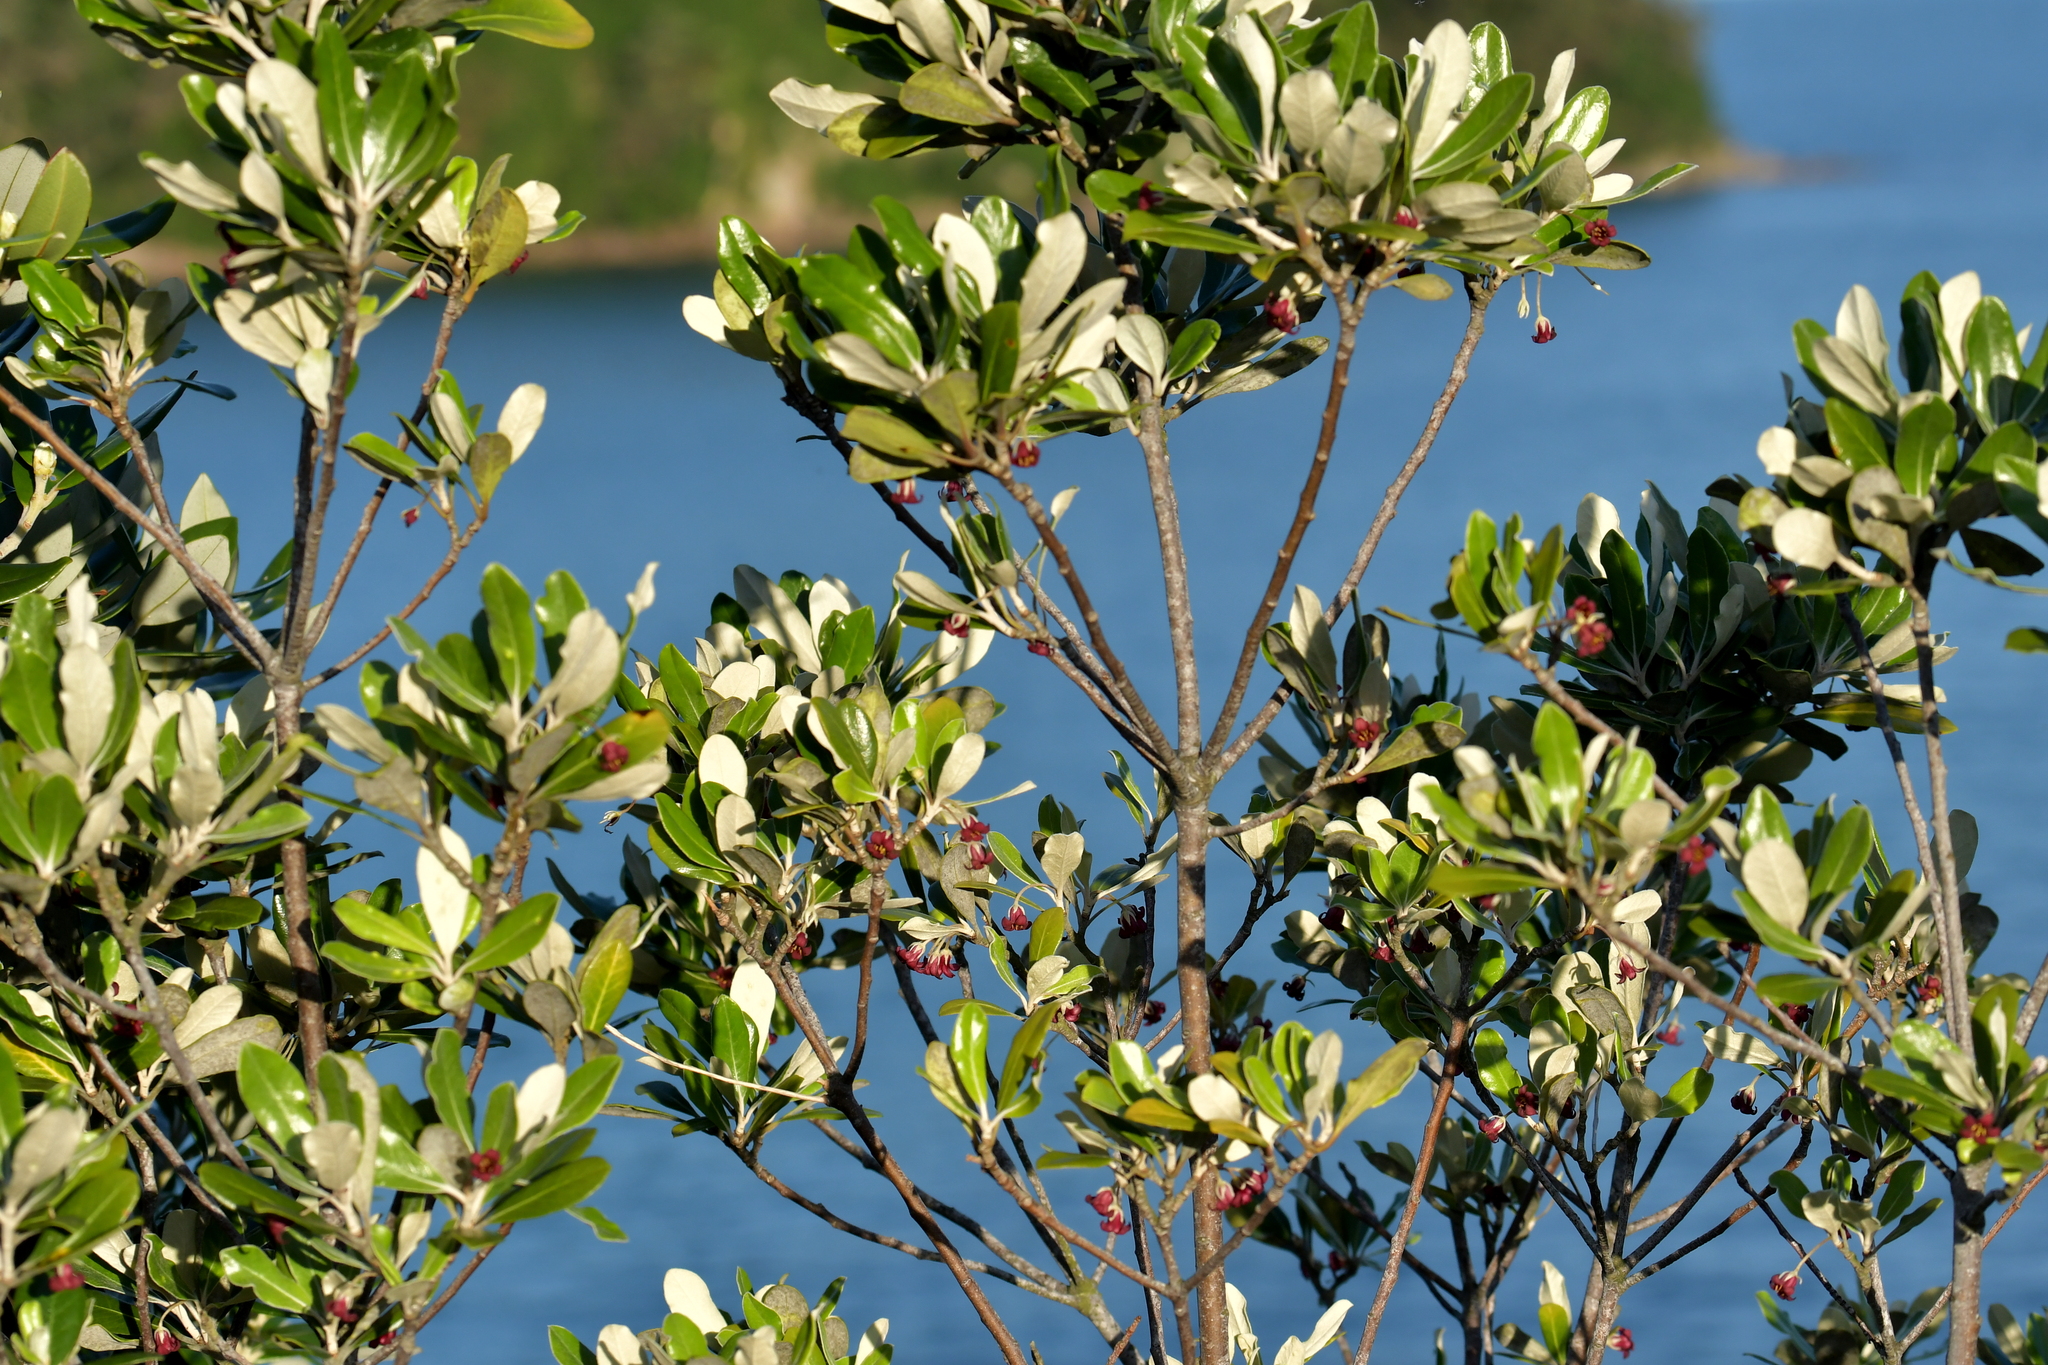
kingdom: Plantae
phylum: Tracheophyta
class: Magnoliopsida
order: Apiales
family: Pittosporaceae
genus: Pittosporum
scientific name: Pittosporum crassifolium
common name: Karo
